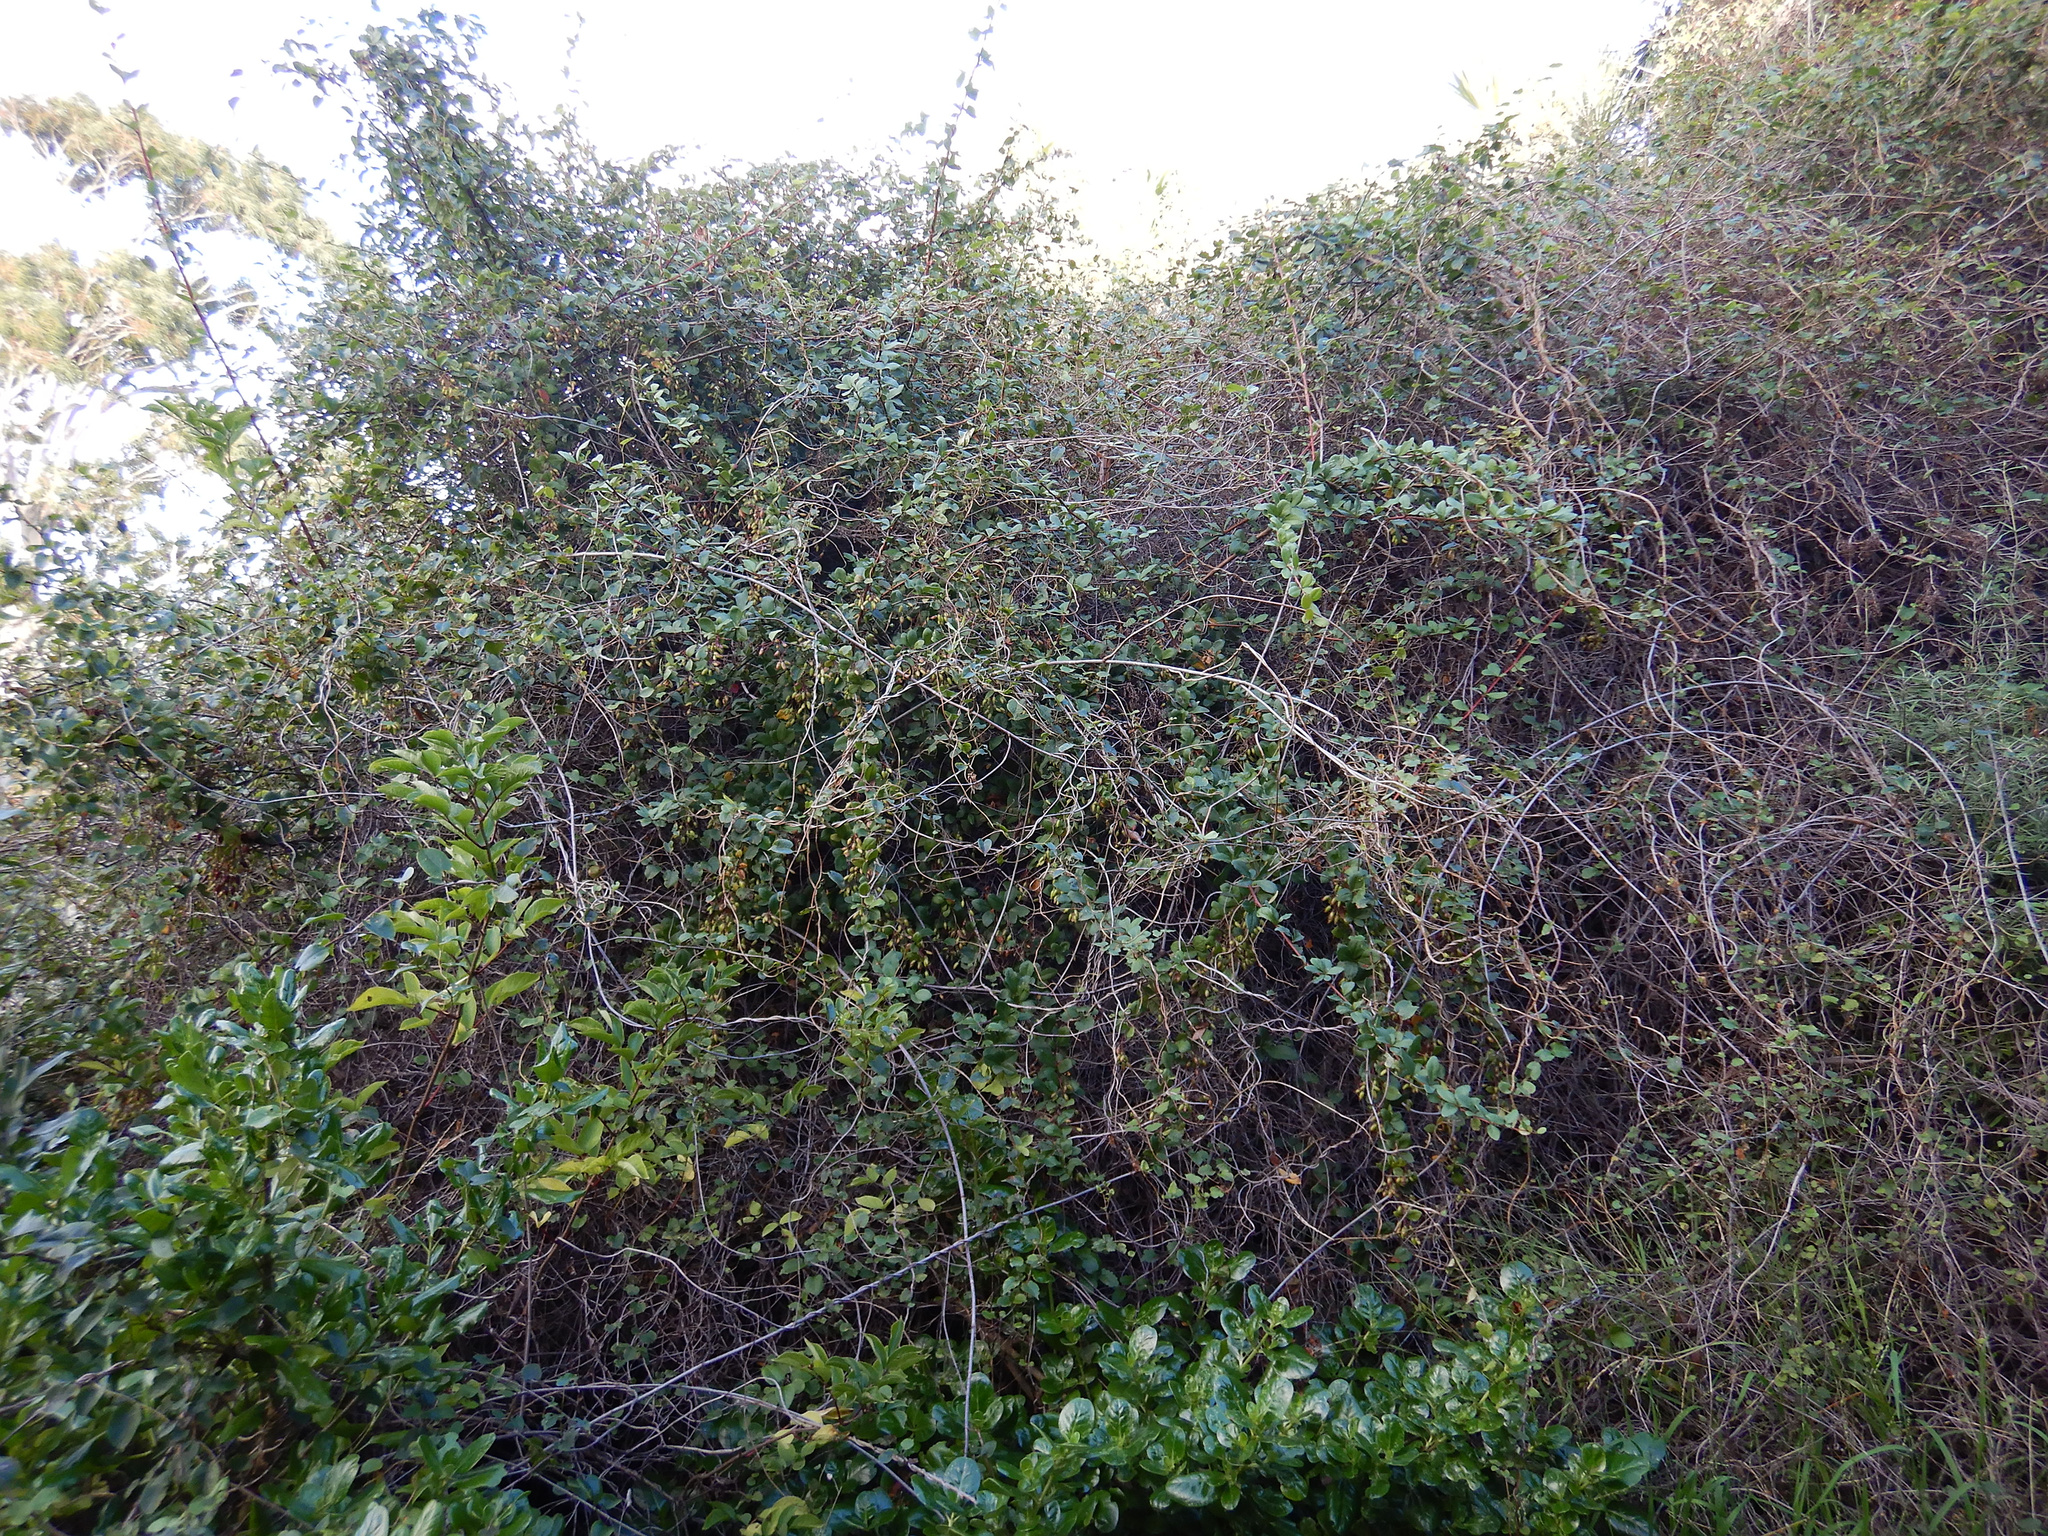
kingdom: Plantae
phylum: Tracheophyta
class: Magnoliopsida
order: Caryophyllales
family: Polygonaceae
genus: Muehlenbeckia
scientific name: Muehlenbeckia australis
